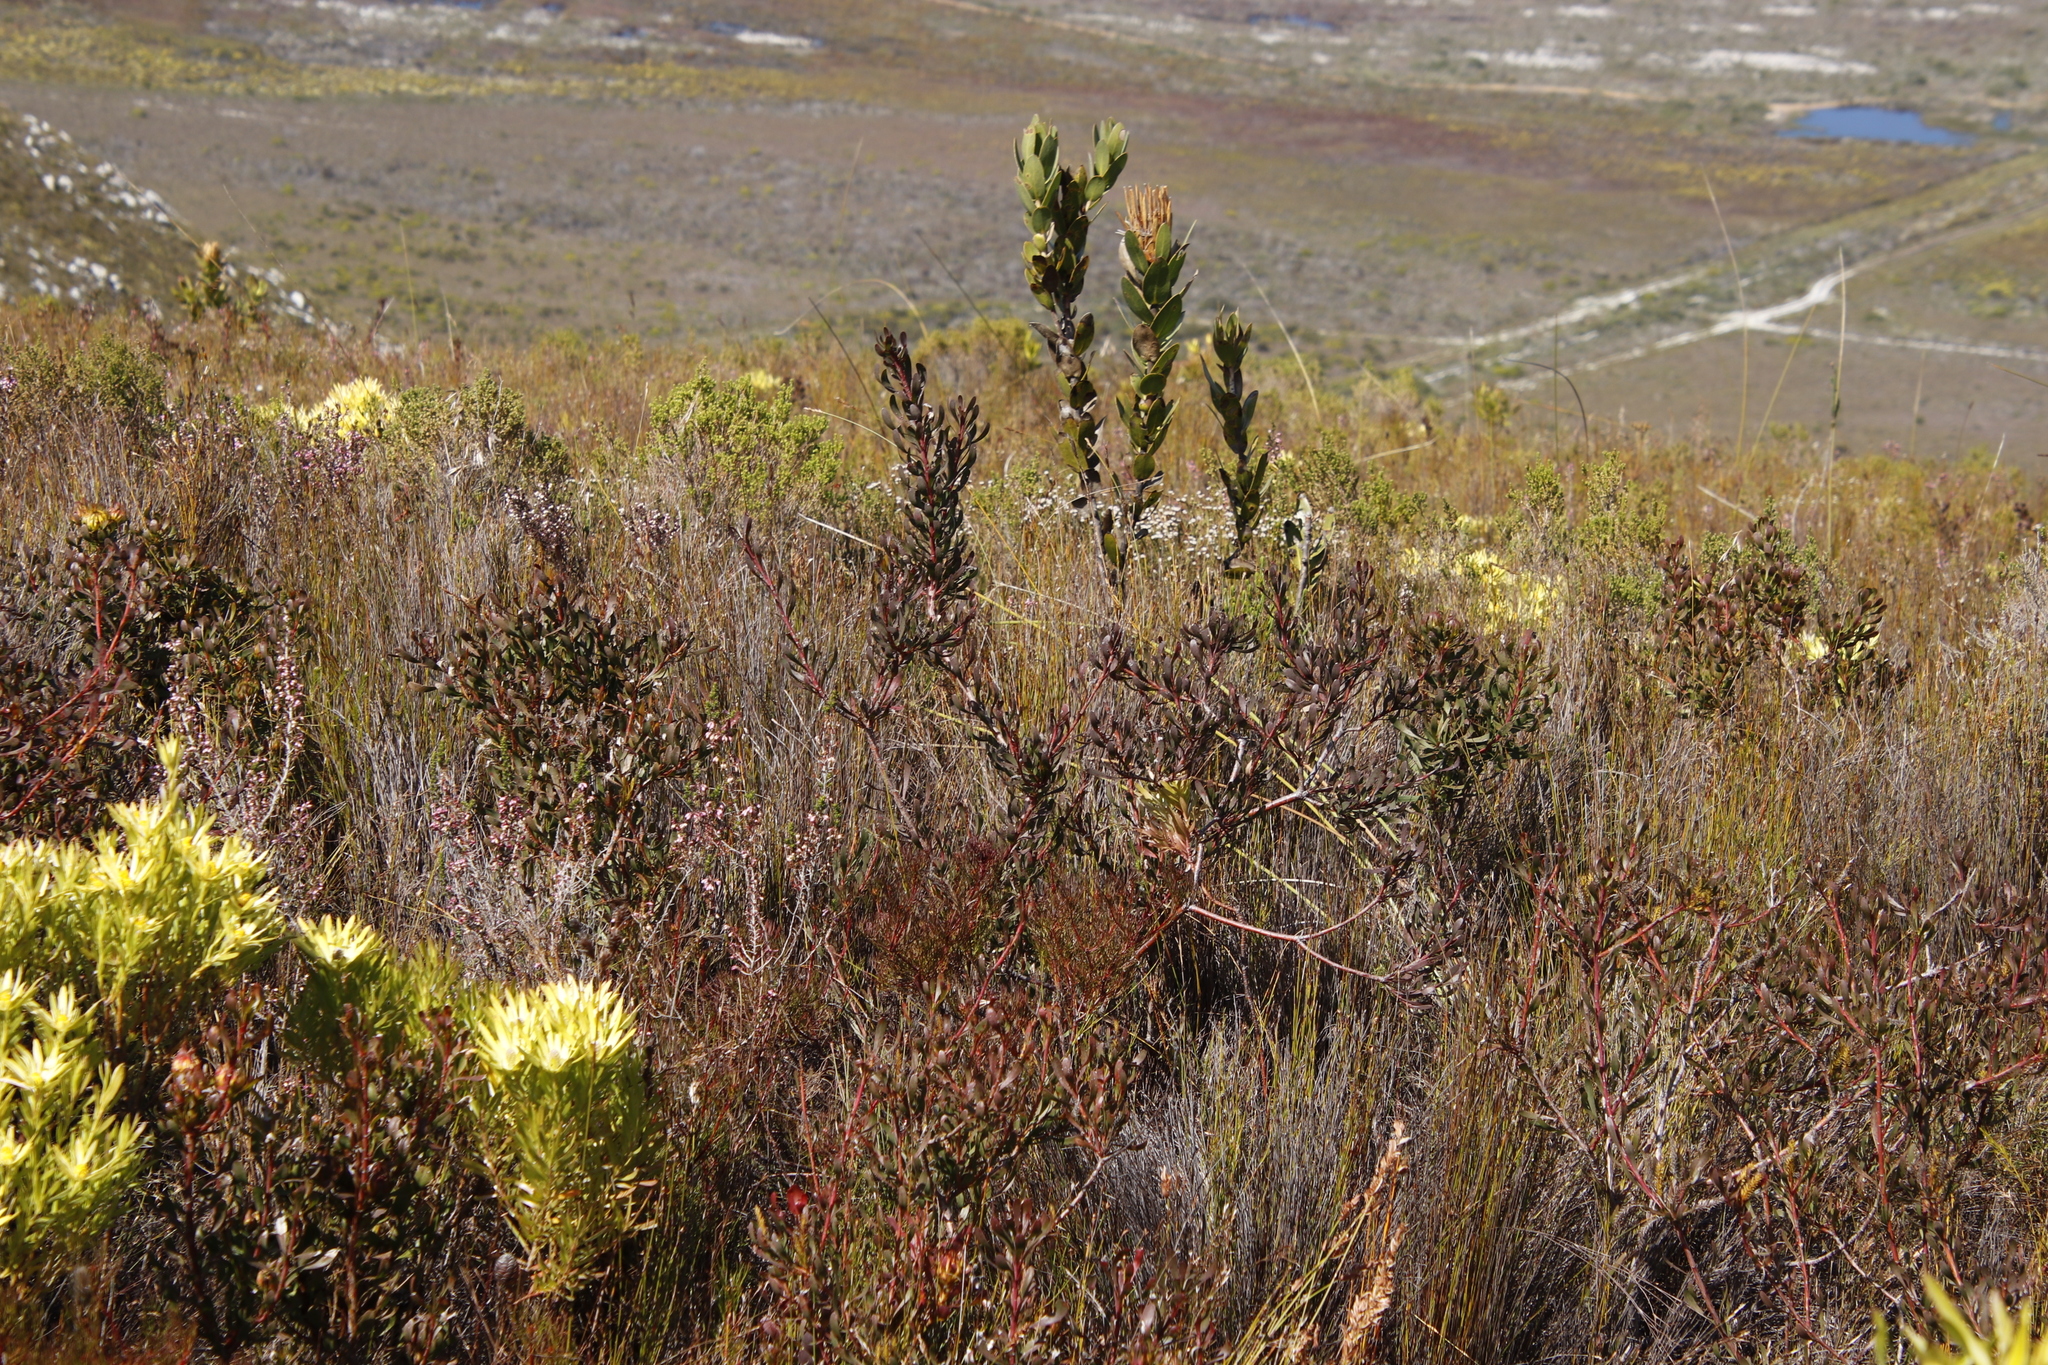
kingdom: Plantae
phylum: Tracheophyta
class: Magnoliopsida
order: Proteales
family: Proteaceae
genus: Aulax
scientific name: Aulax umbellata
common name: Broad-leaf featherbush
